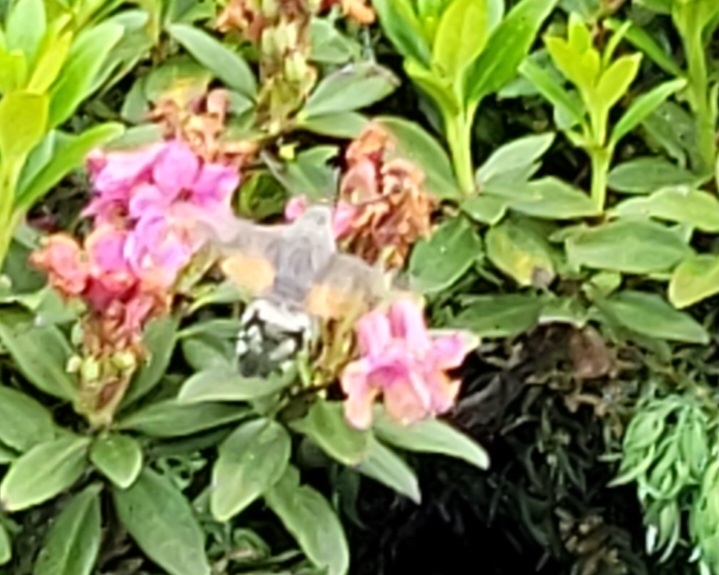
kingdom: Animalia
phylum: Arthropoda
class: Insecta
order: Lepidoptera
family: Sphingidae
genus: Macroglossum
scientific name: Macroglossum stellatarum
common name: Humming-bird hawk-moth
